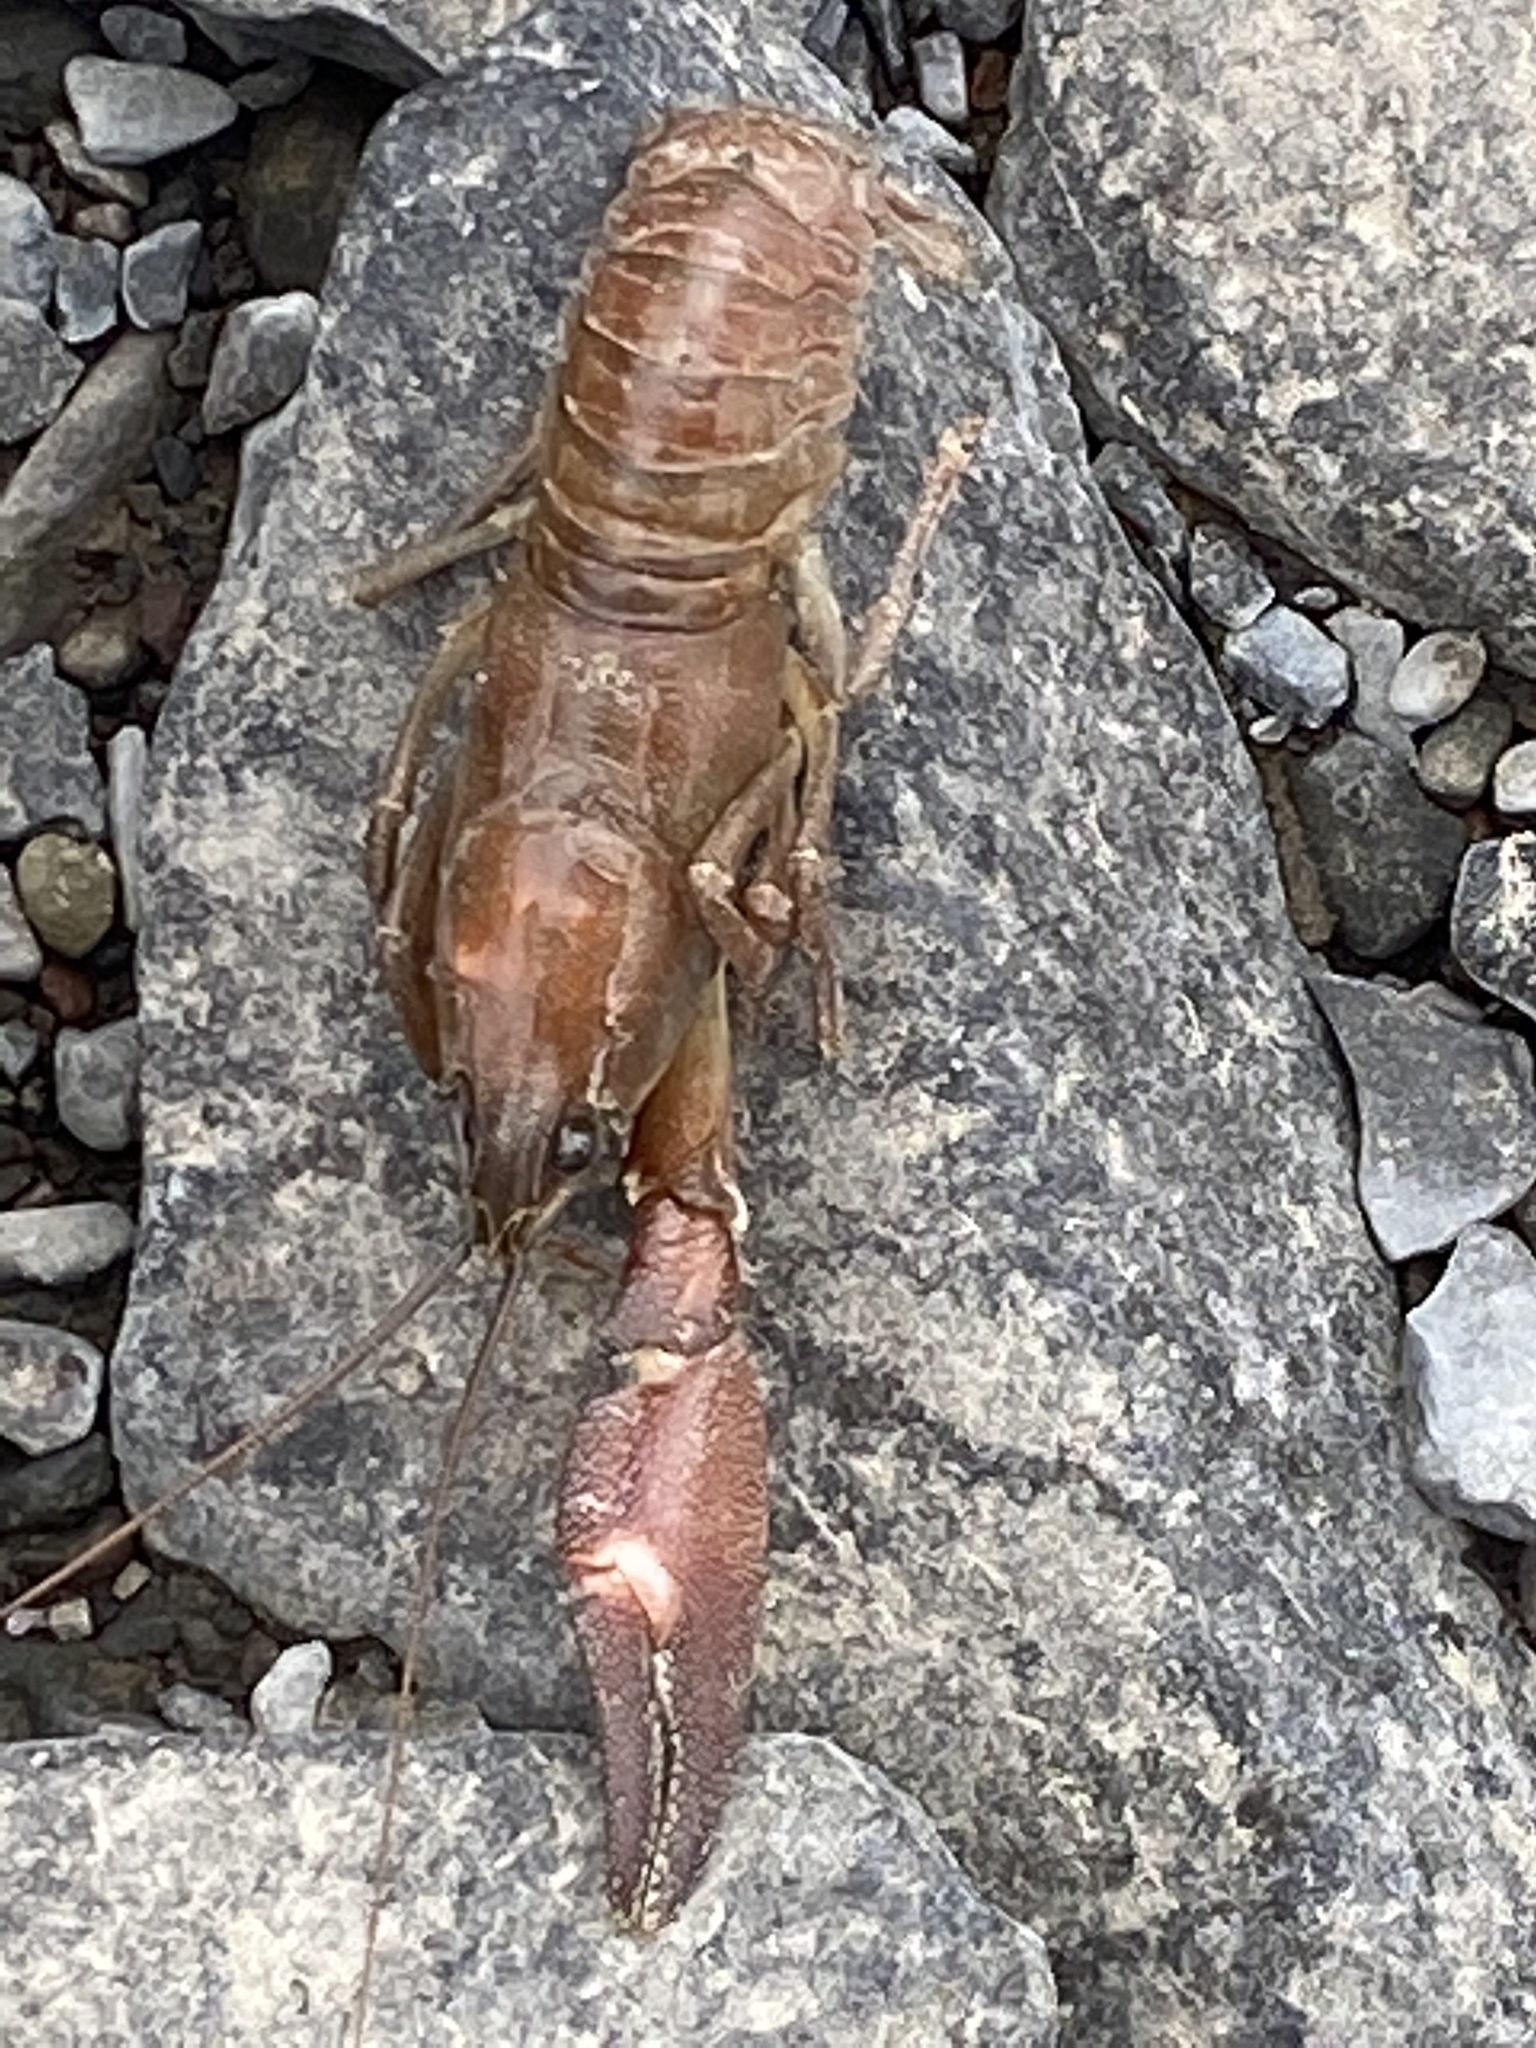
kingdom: Animalia
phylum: Arthropoda
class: Malacostraca
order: Decapoda
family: Astacidae
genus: Pacifastacus
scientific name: Pacifastacus leniusculus
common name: Signal crayfish
